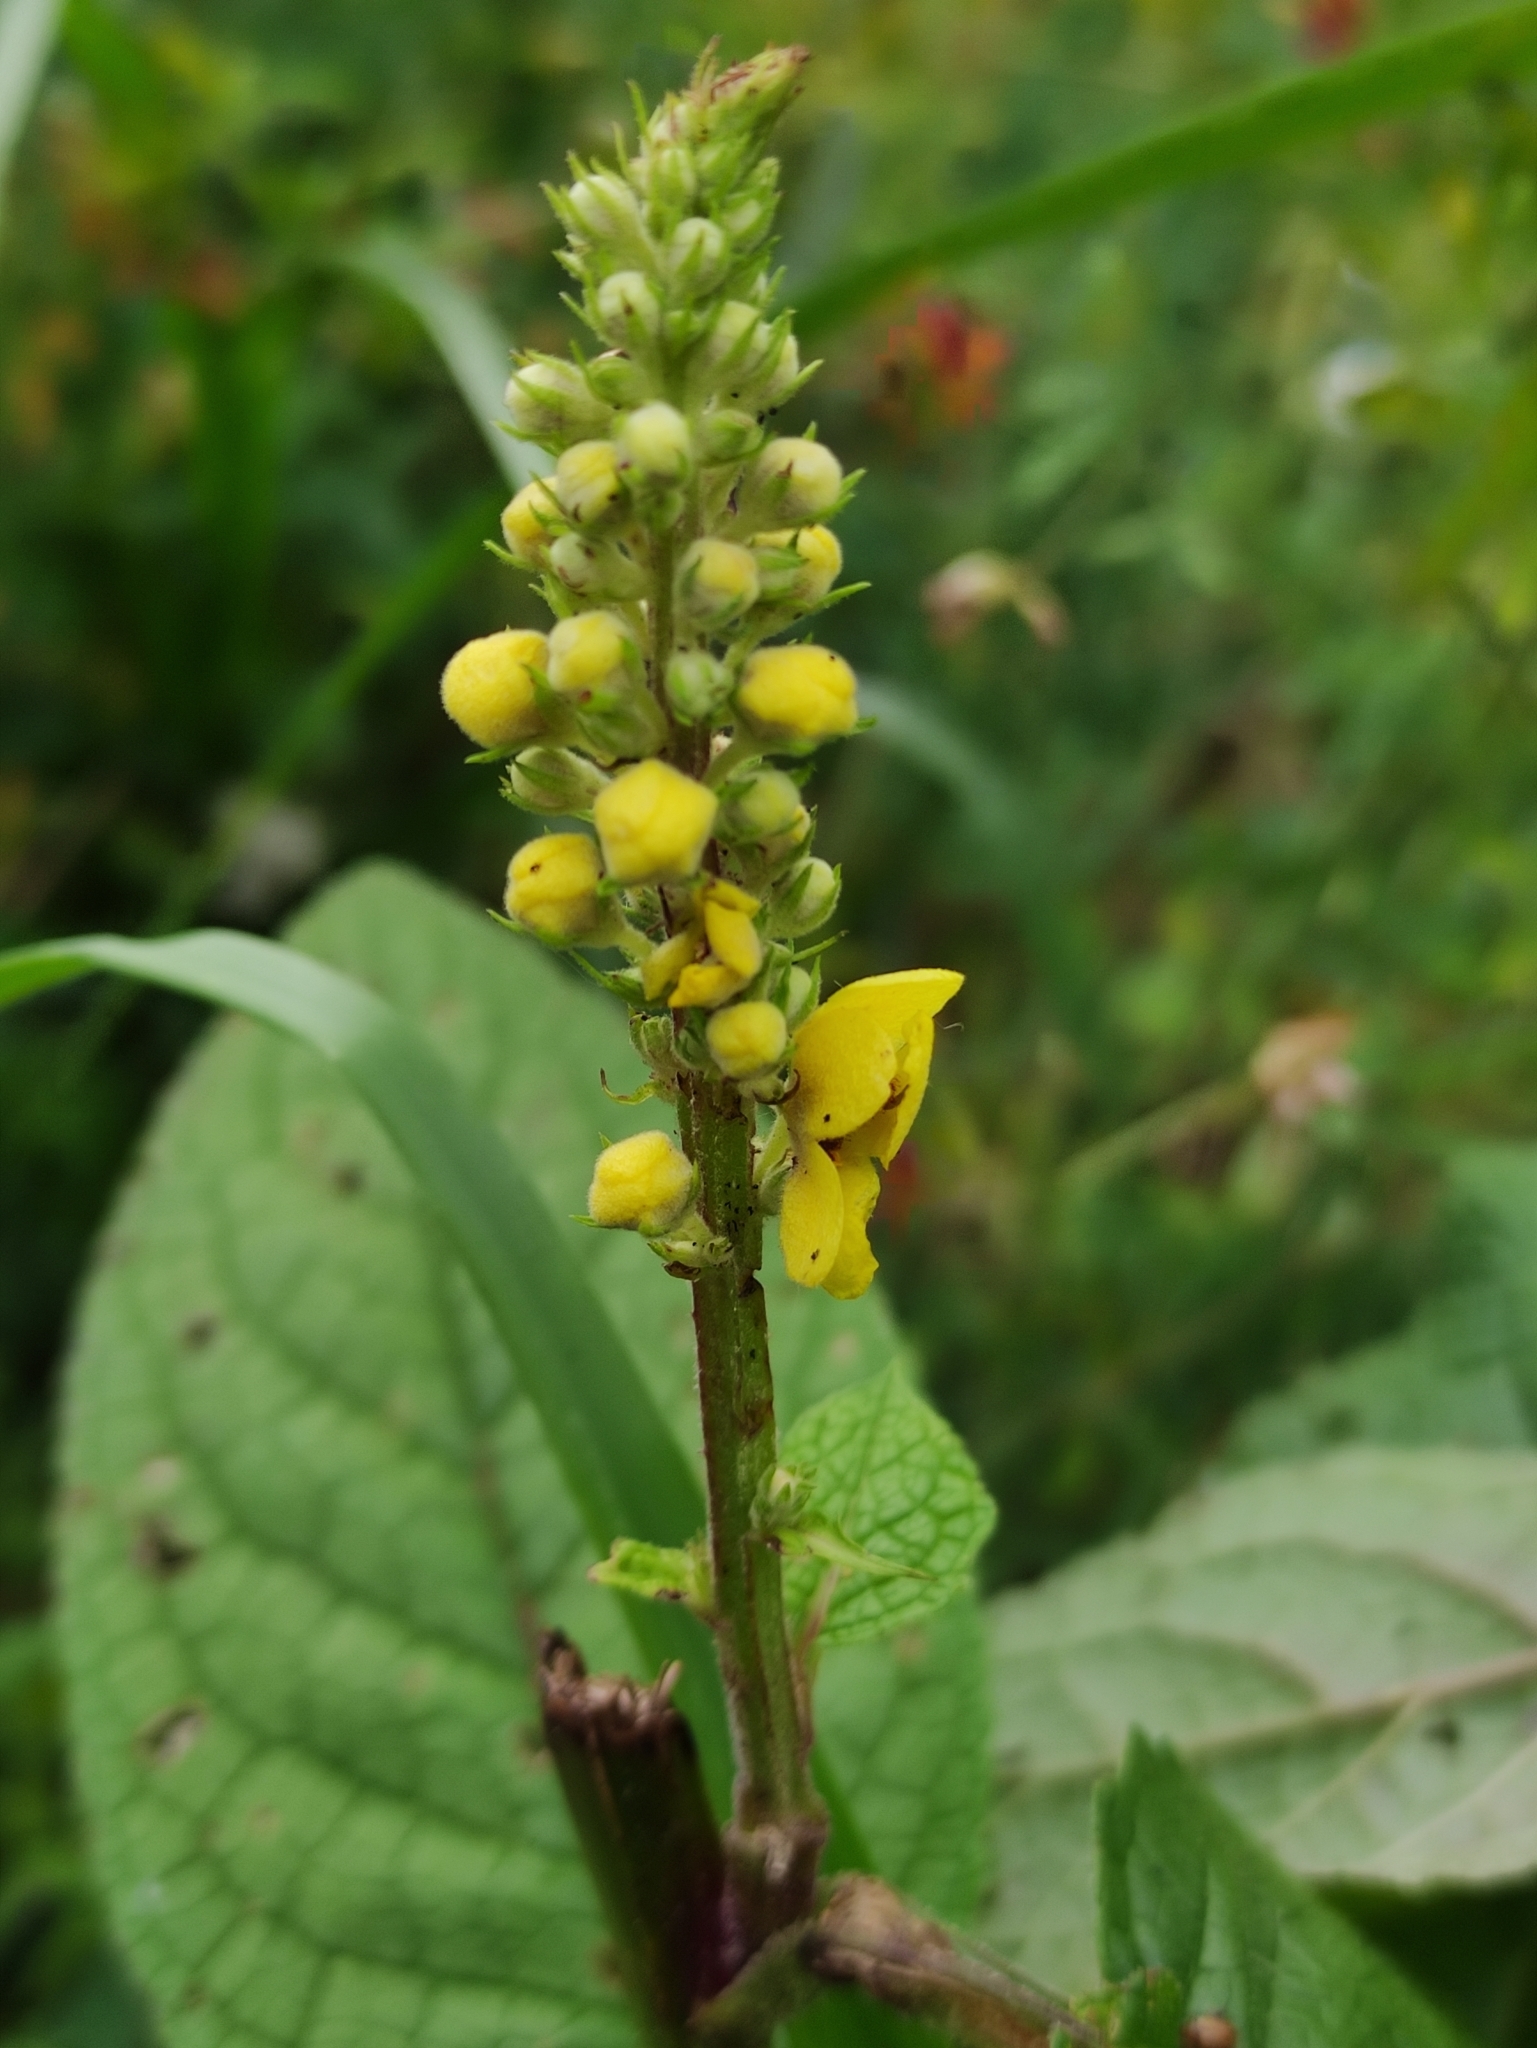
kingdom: Plantae
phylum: Tracheophyta
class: Magnoliopsida
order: Lamiales
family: Scrophulariaceae
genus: Verbascum
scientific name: Verbascum nigrum
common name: Dark mullein
